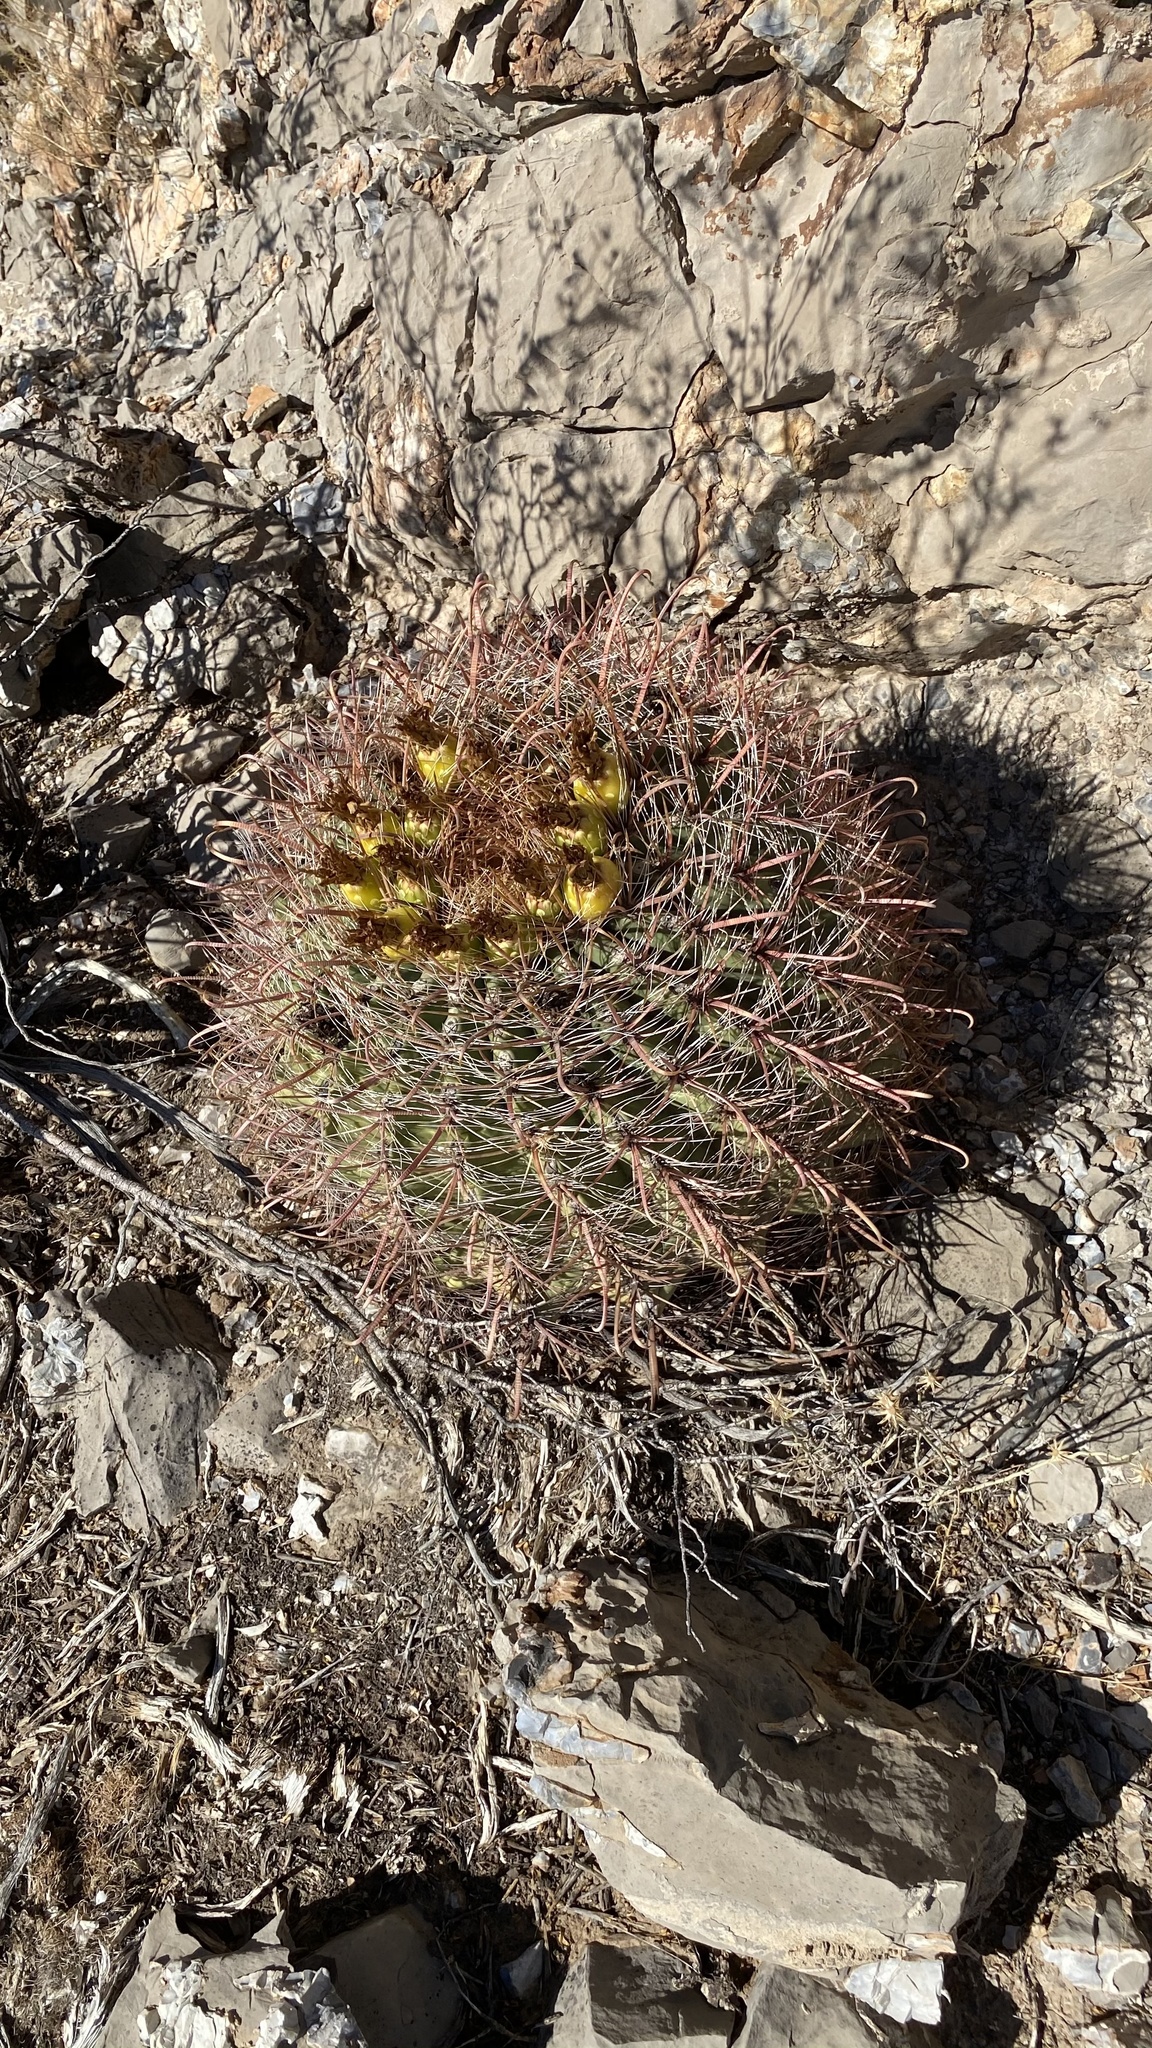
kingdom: Plantae
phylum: Tracheophyta
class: Magnoliopsida
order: Caryophyllales
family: Cactaceae
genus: Ferocactus
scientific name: Ferocactus wislizeni
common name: Candy barrel cactus
